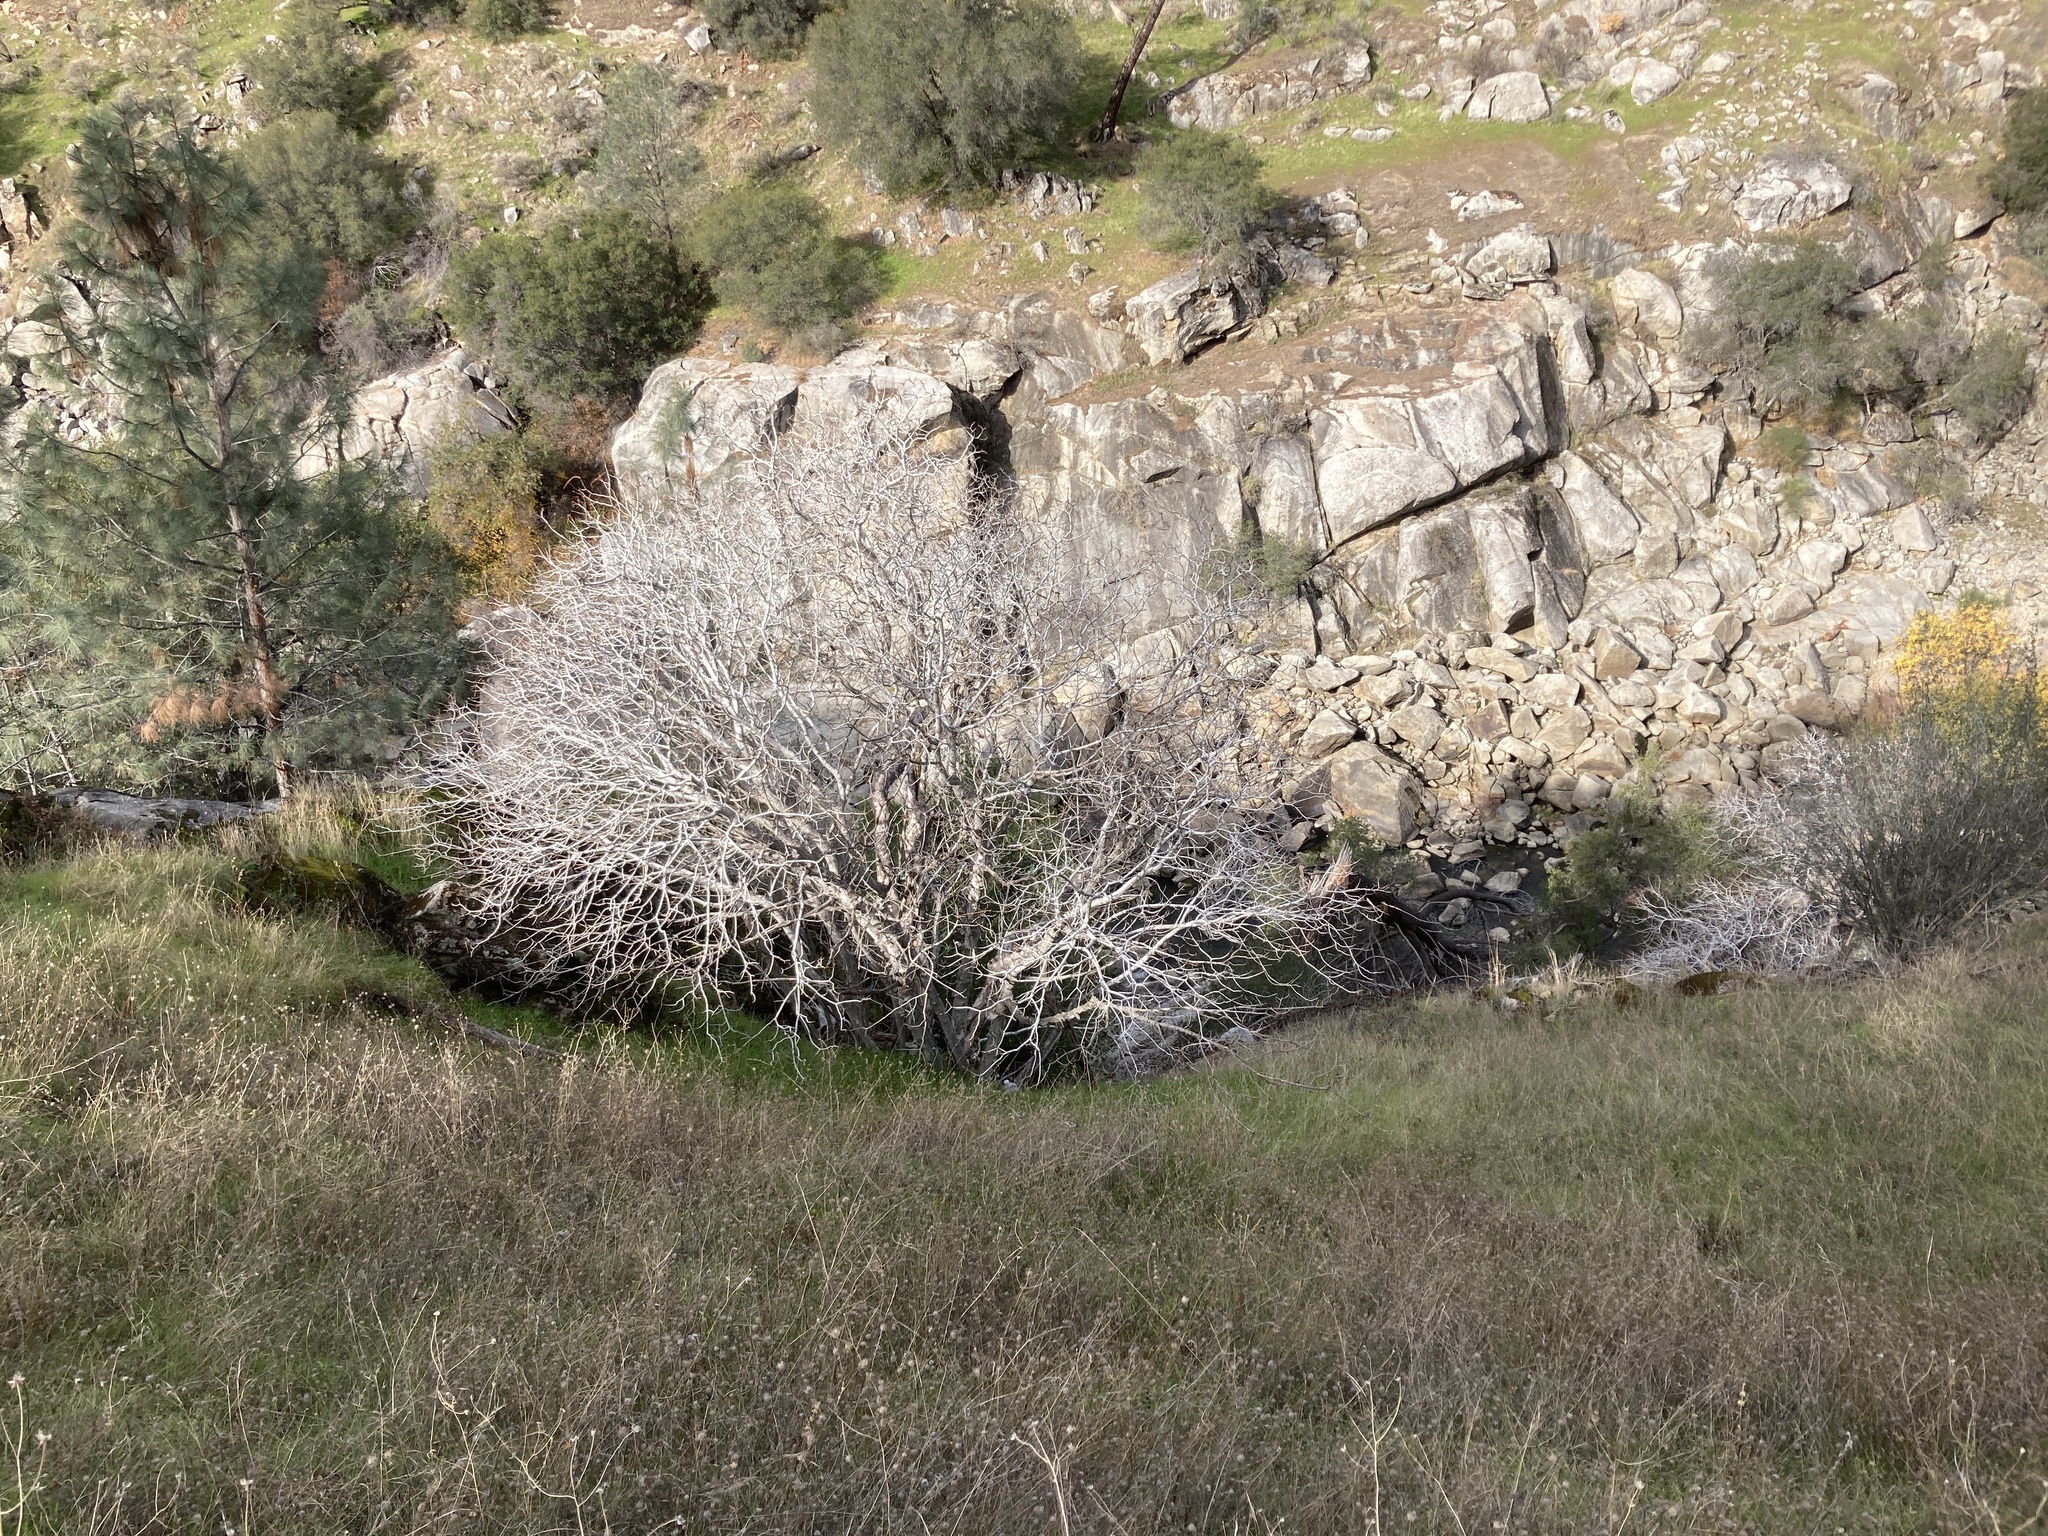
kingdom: Plantae
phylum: Tracheophyta
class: Magnoliopsida
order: Sapindales
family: Sapindaceae
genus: Aesculus
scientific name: Aesculus californica
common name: California buckeye
